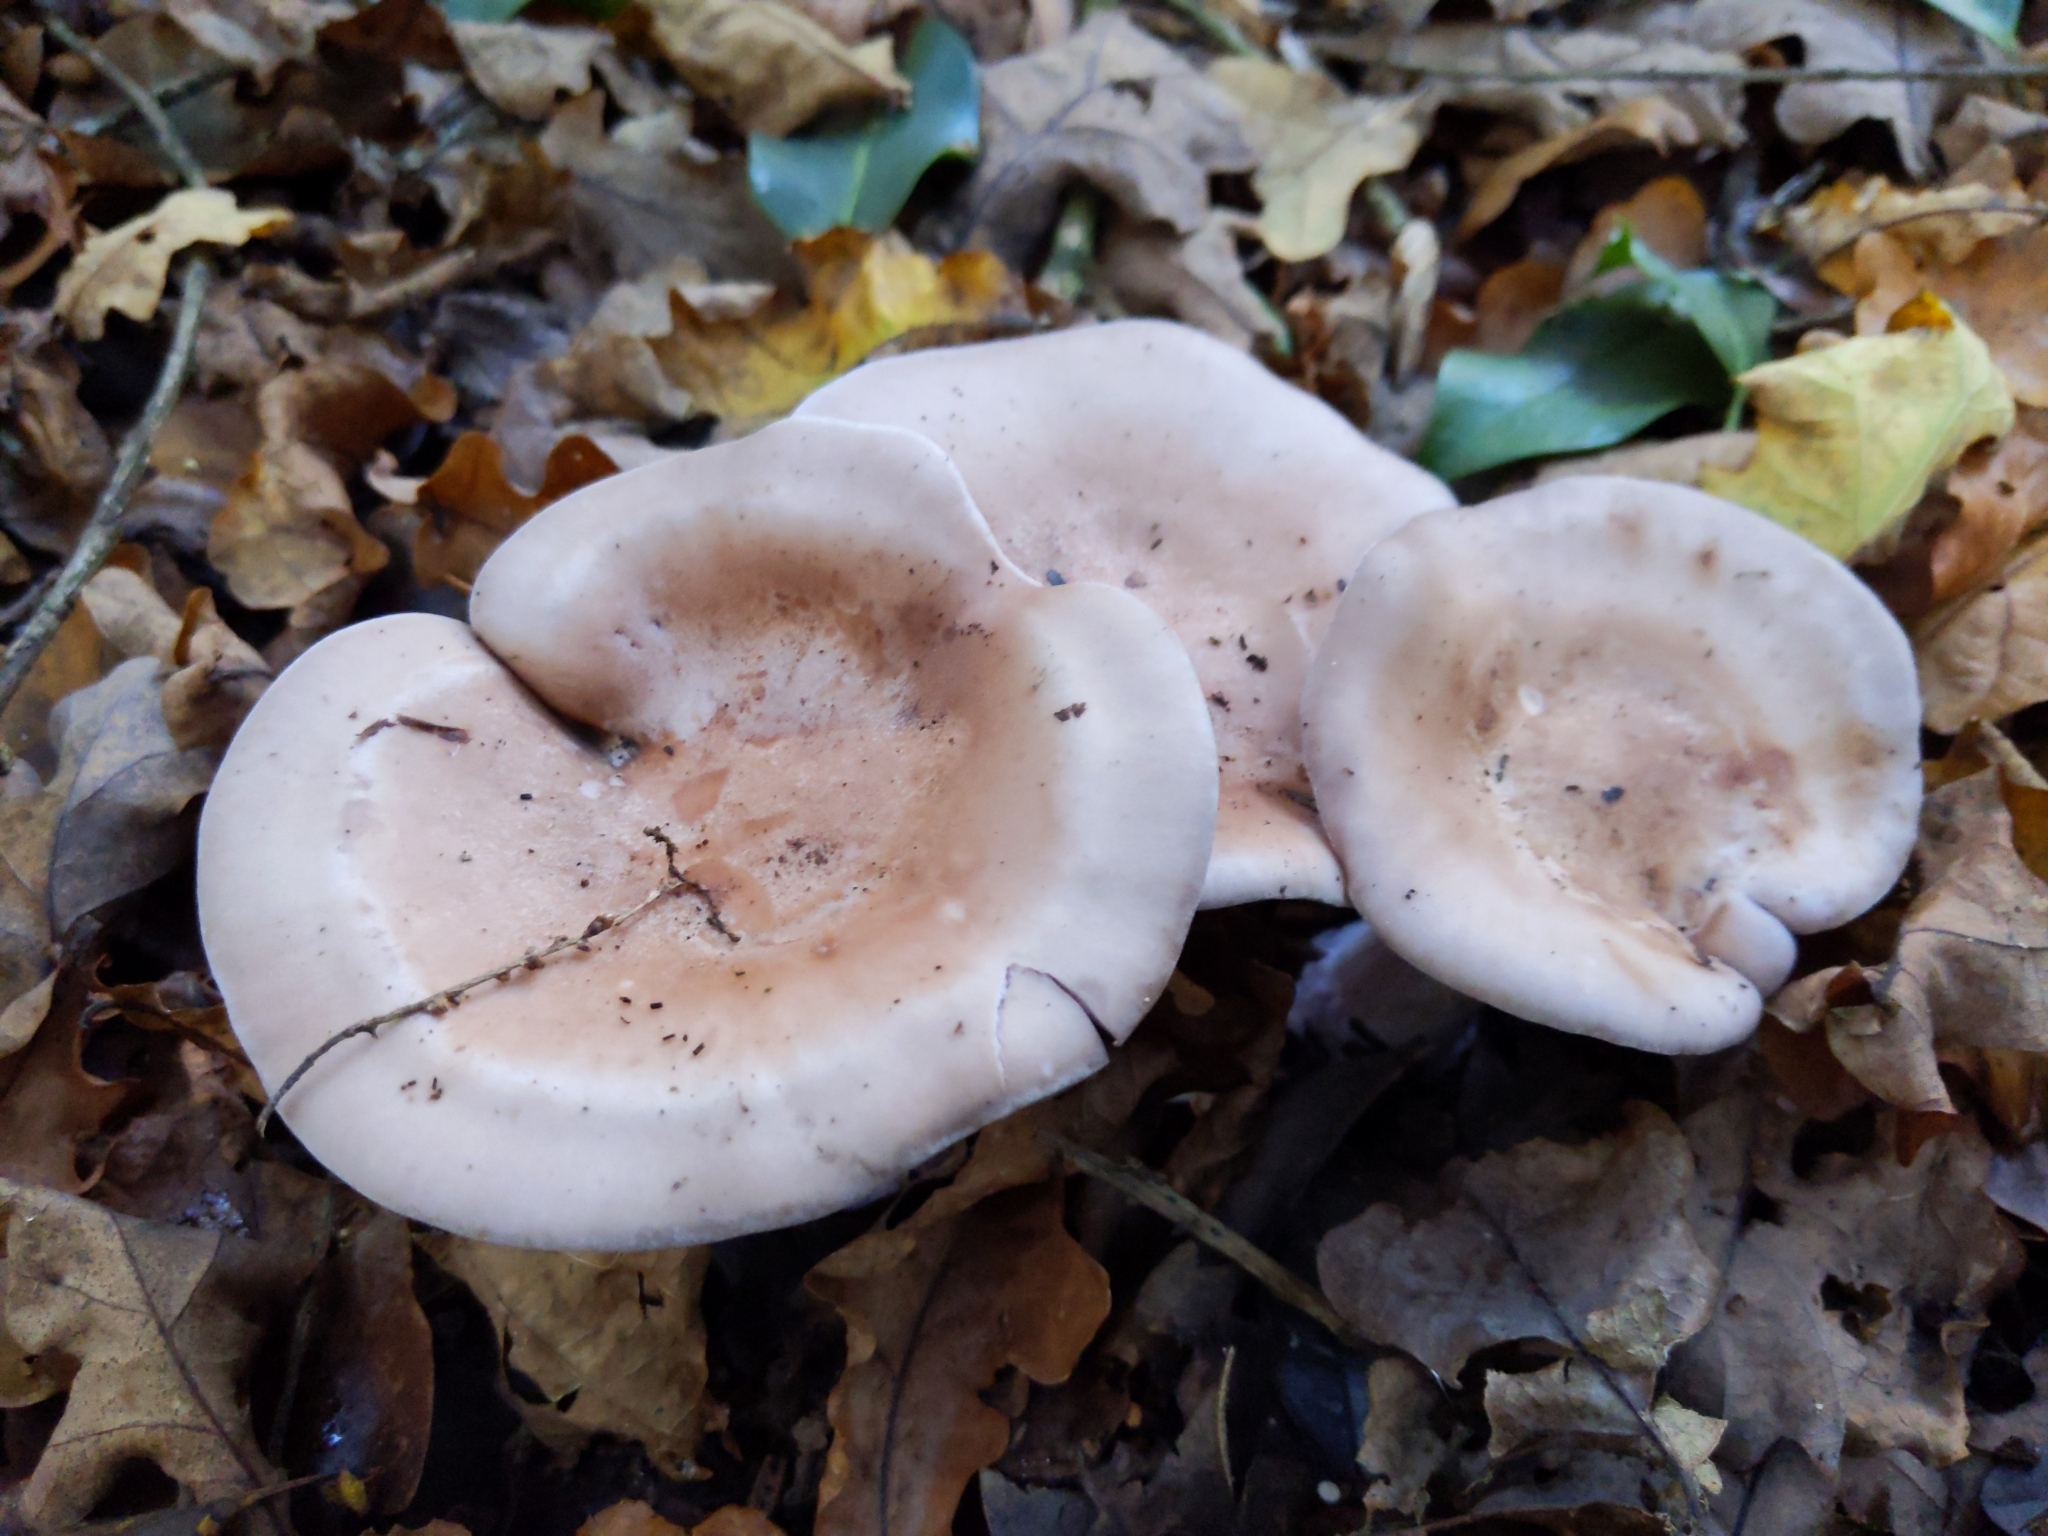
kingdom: Fungi
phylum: Basidiomycota
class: Agaricomycetes
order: Agaricales
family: Tricholomataceae
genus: Collybia
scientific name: Collybia
